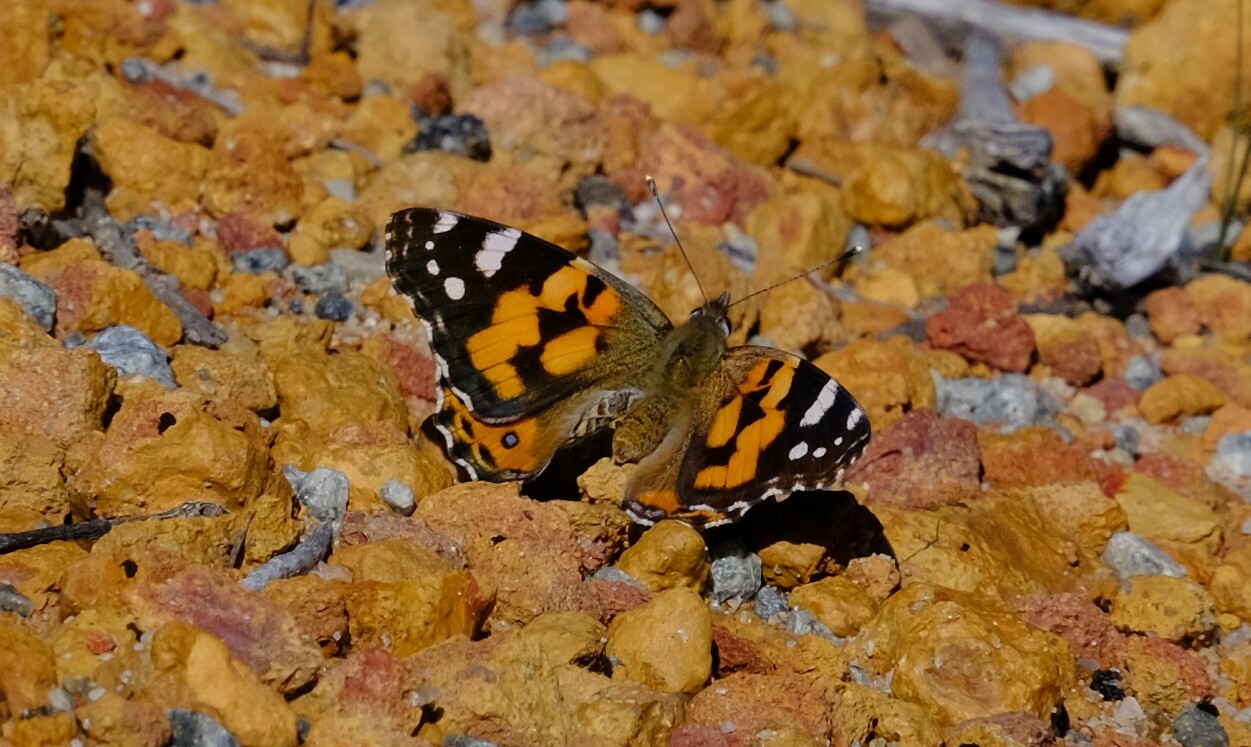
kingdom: Animalia
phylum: Arthropoda
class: Insecta
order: Lepidoptera
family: Nymphalidae
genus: Vanessa
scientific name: Vanessa kershawi
